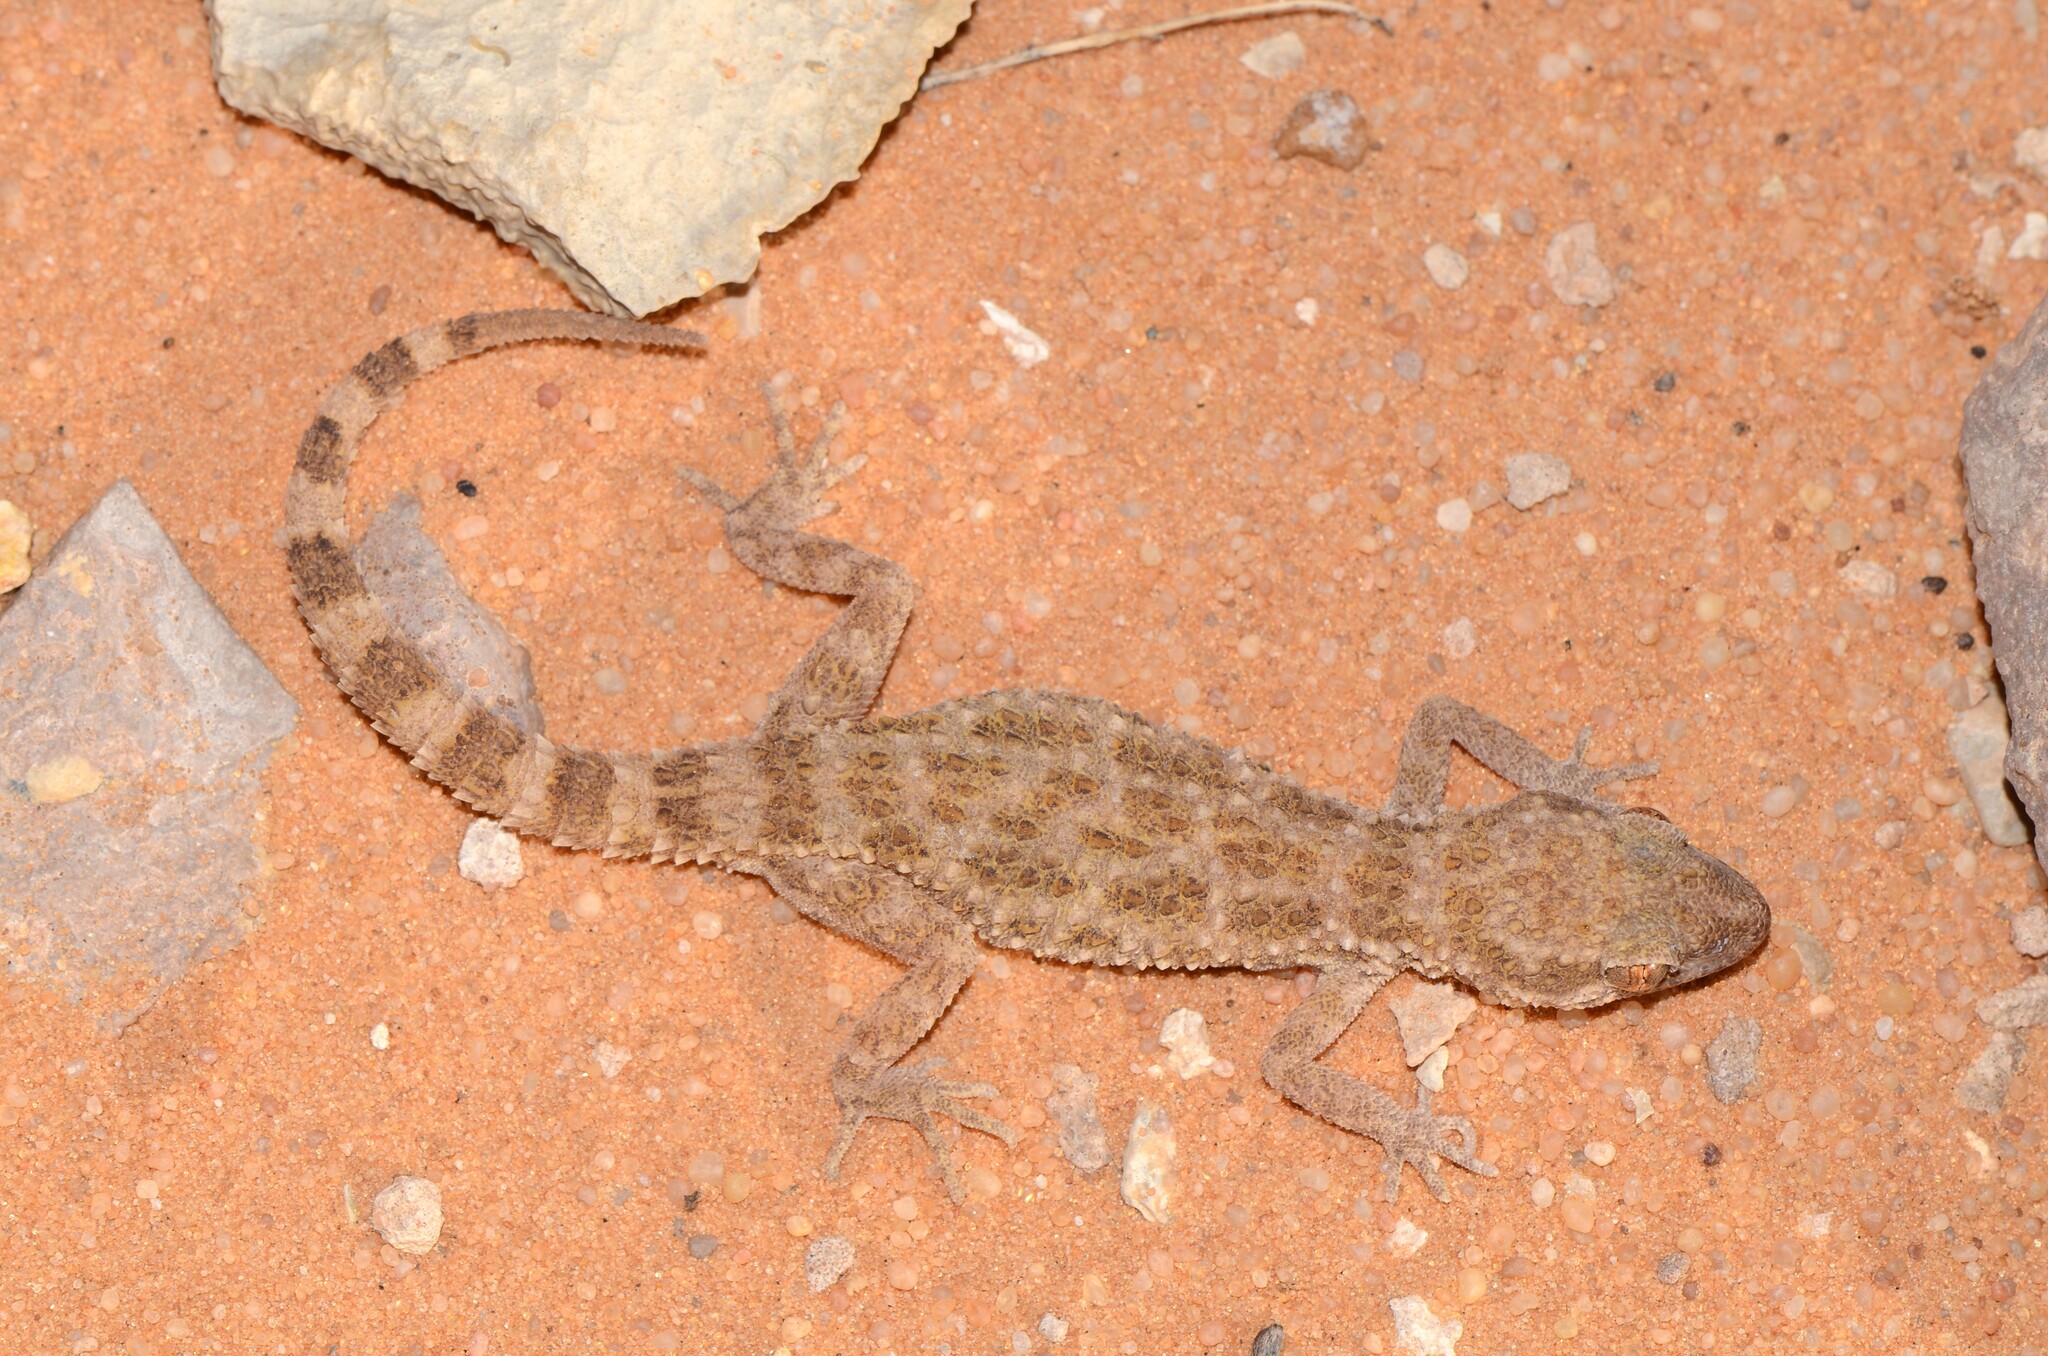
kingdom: Animalia
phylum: Chordata
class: Squamata
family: Gekkonidae
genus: Bunopus
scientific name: Bunopus tuberculatus
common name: Southern tuberculated gecko
